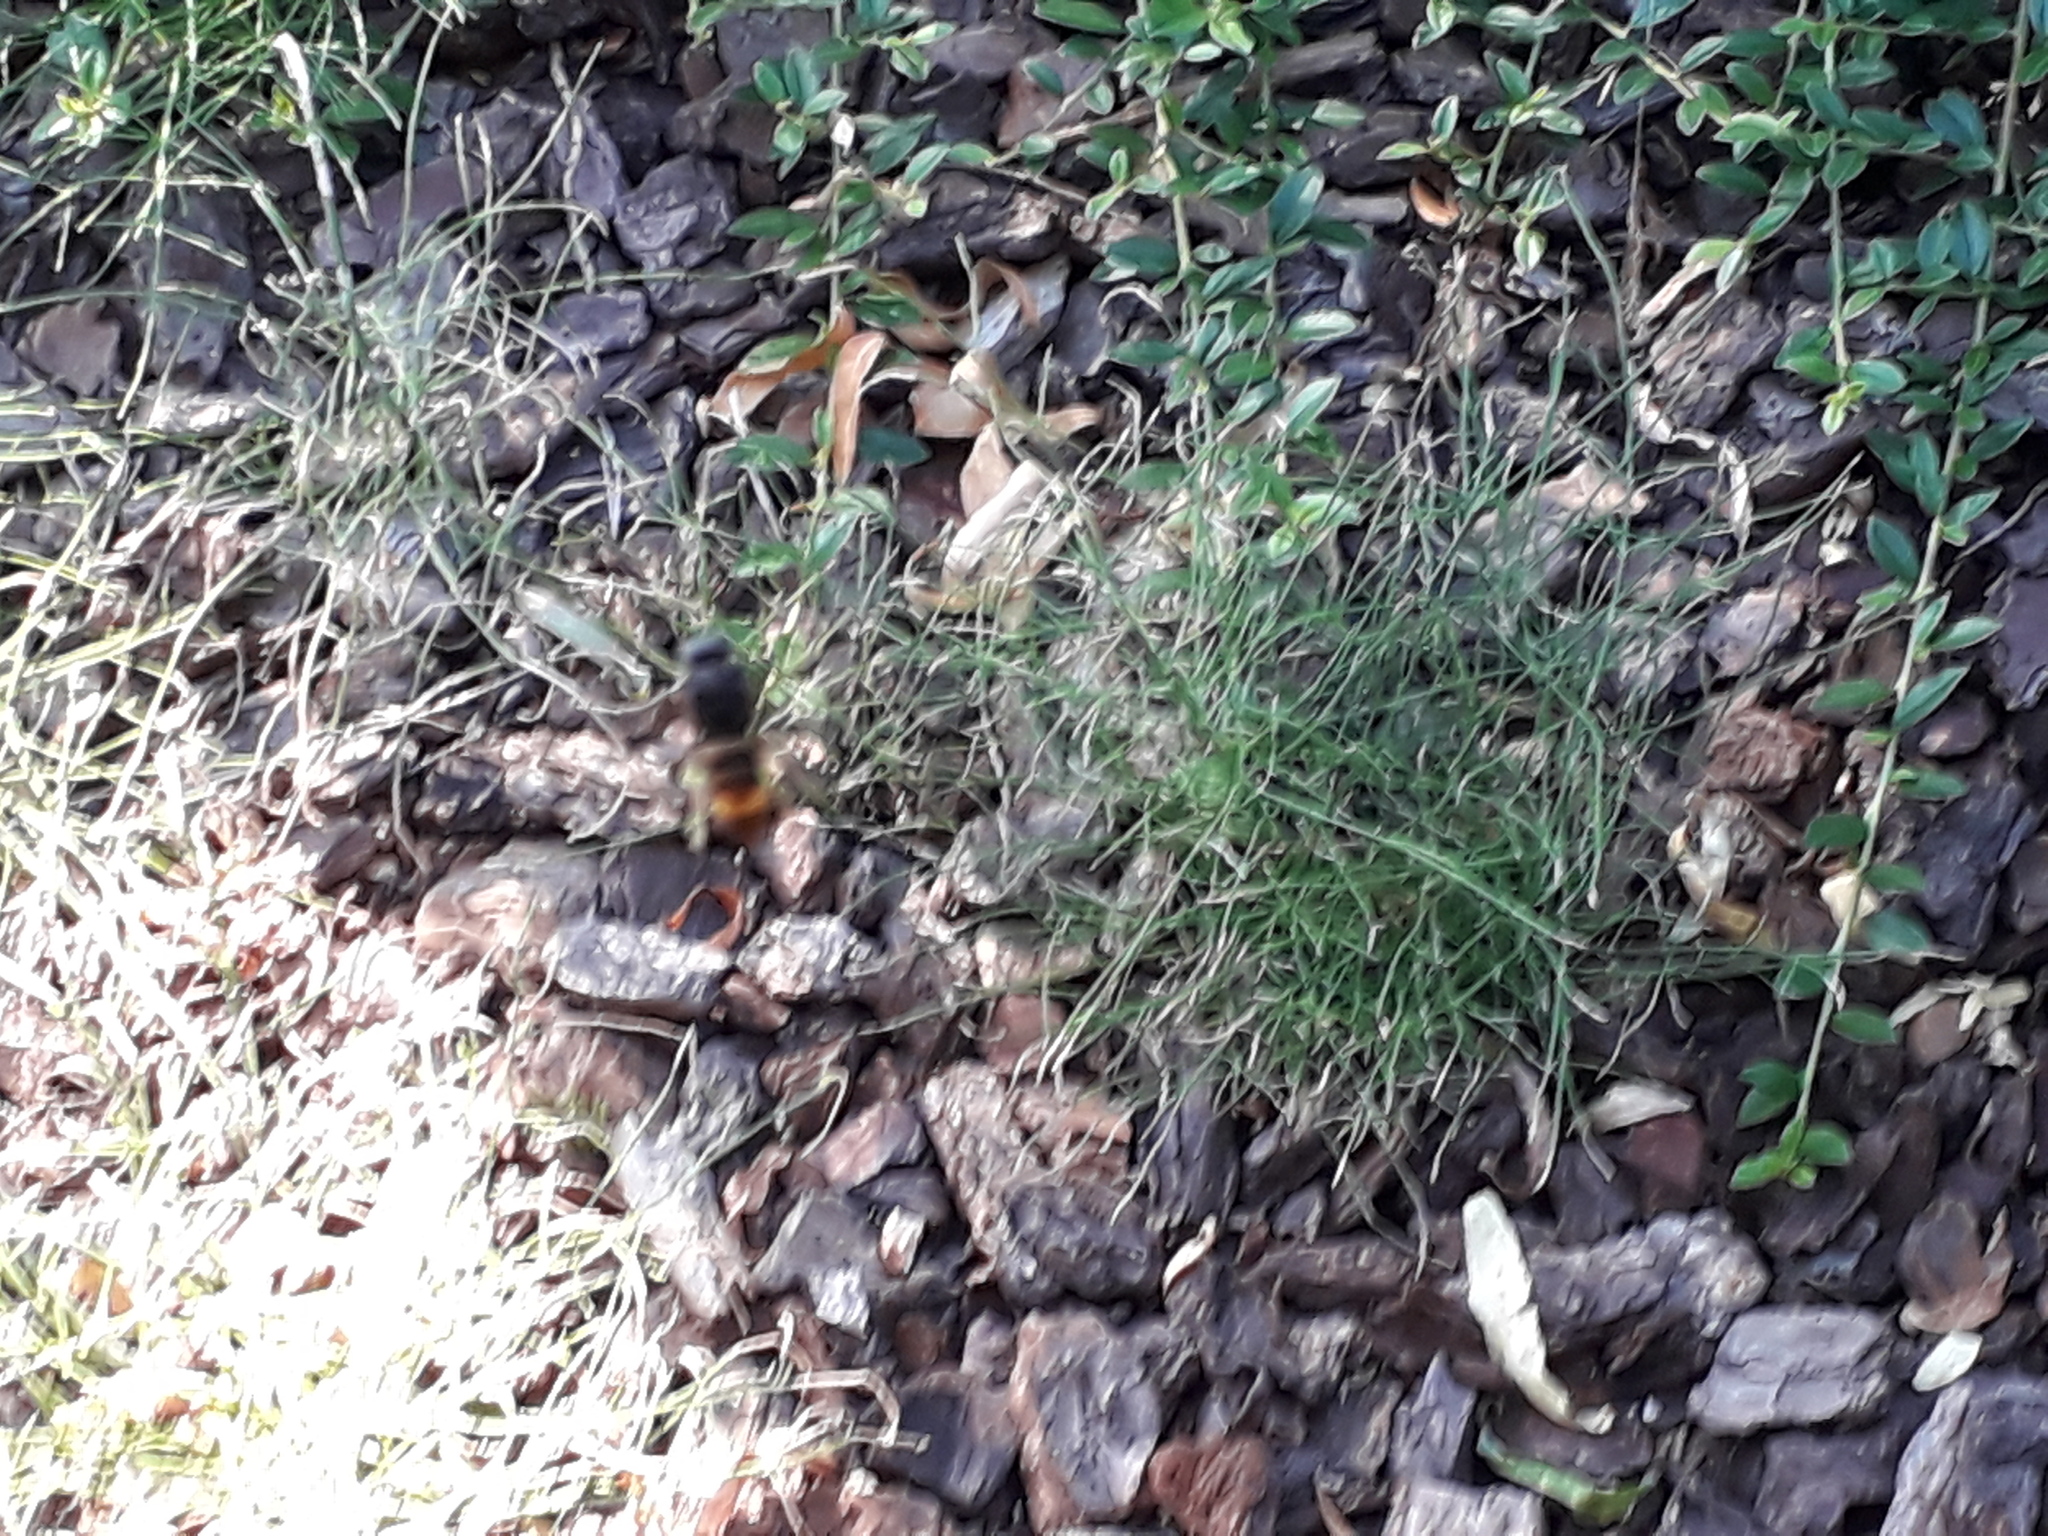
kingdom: Animalia
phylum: Arthropoda
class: Insecta
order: Hymenoptera
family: Vespidae
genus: Vespa
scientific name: Vespa velutina
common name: Asian hornet
